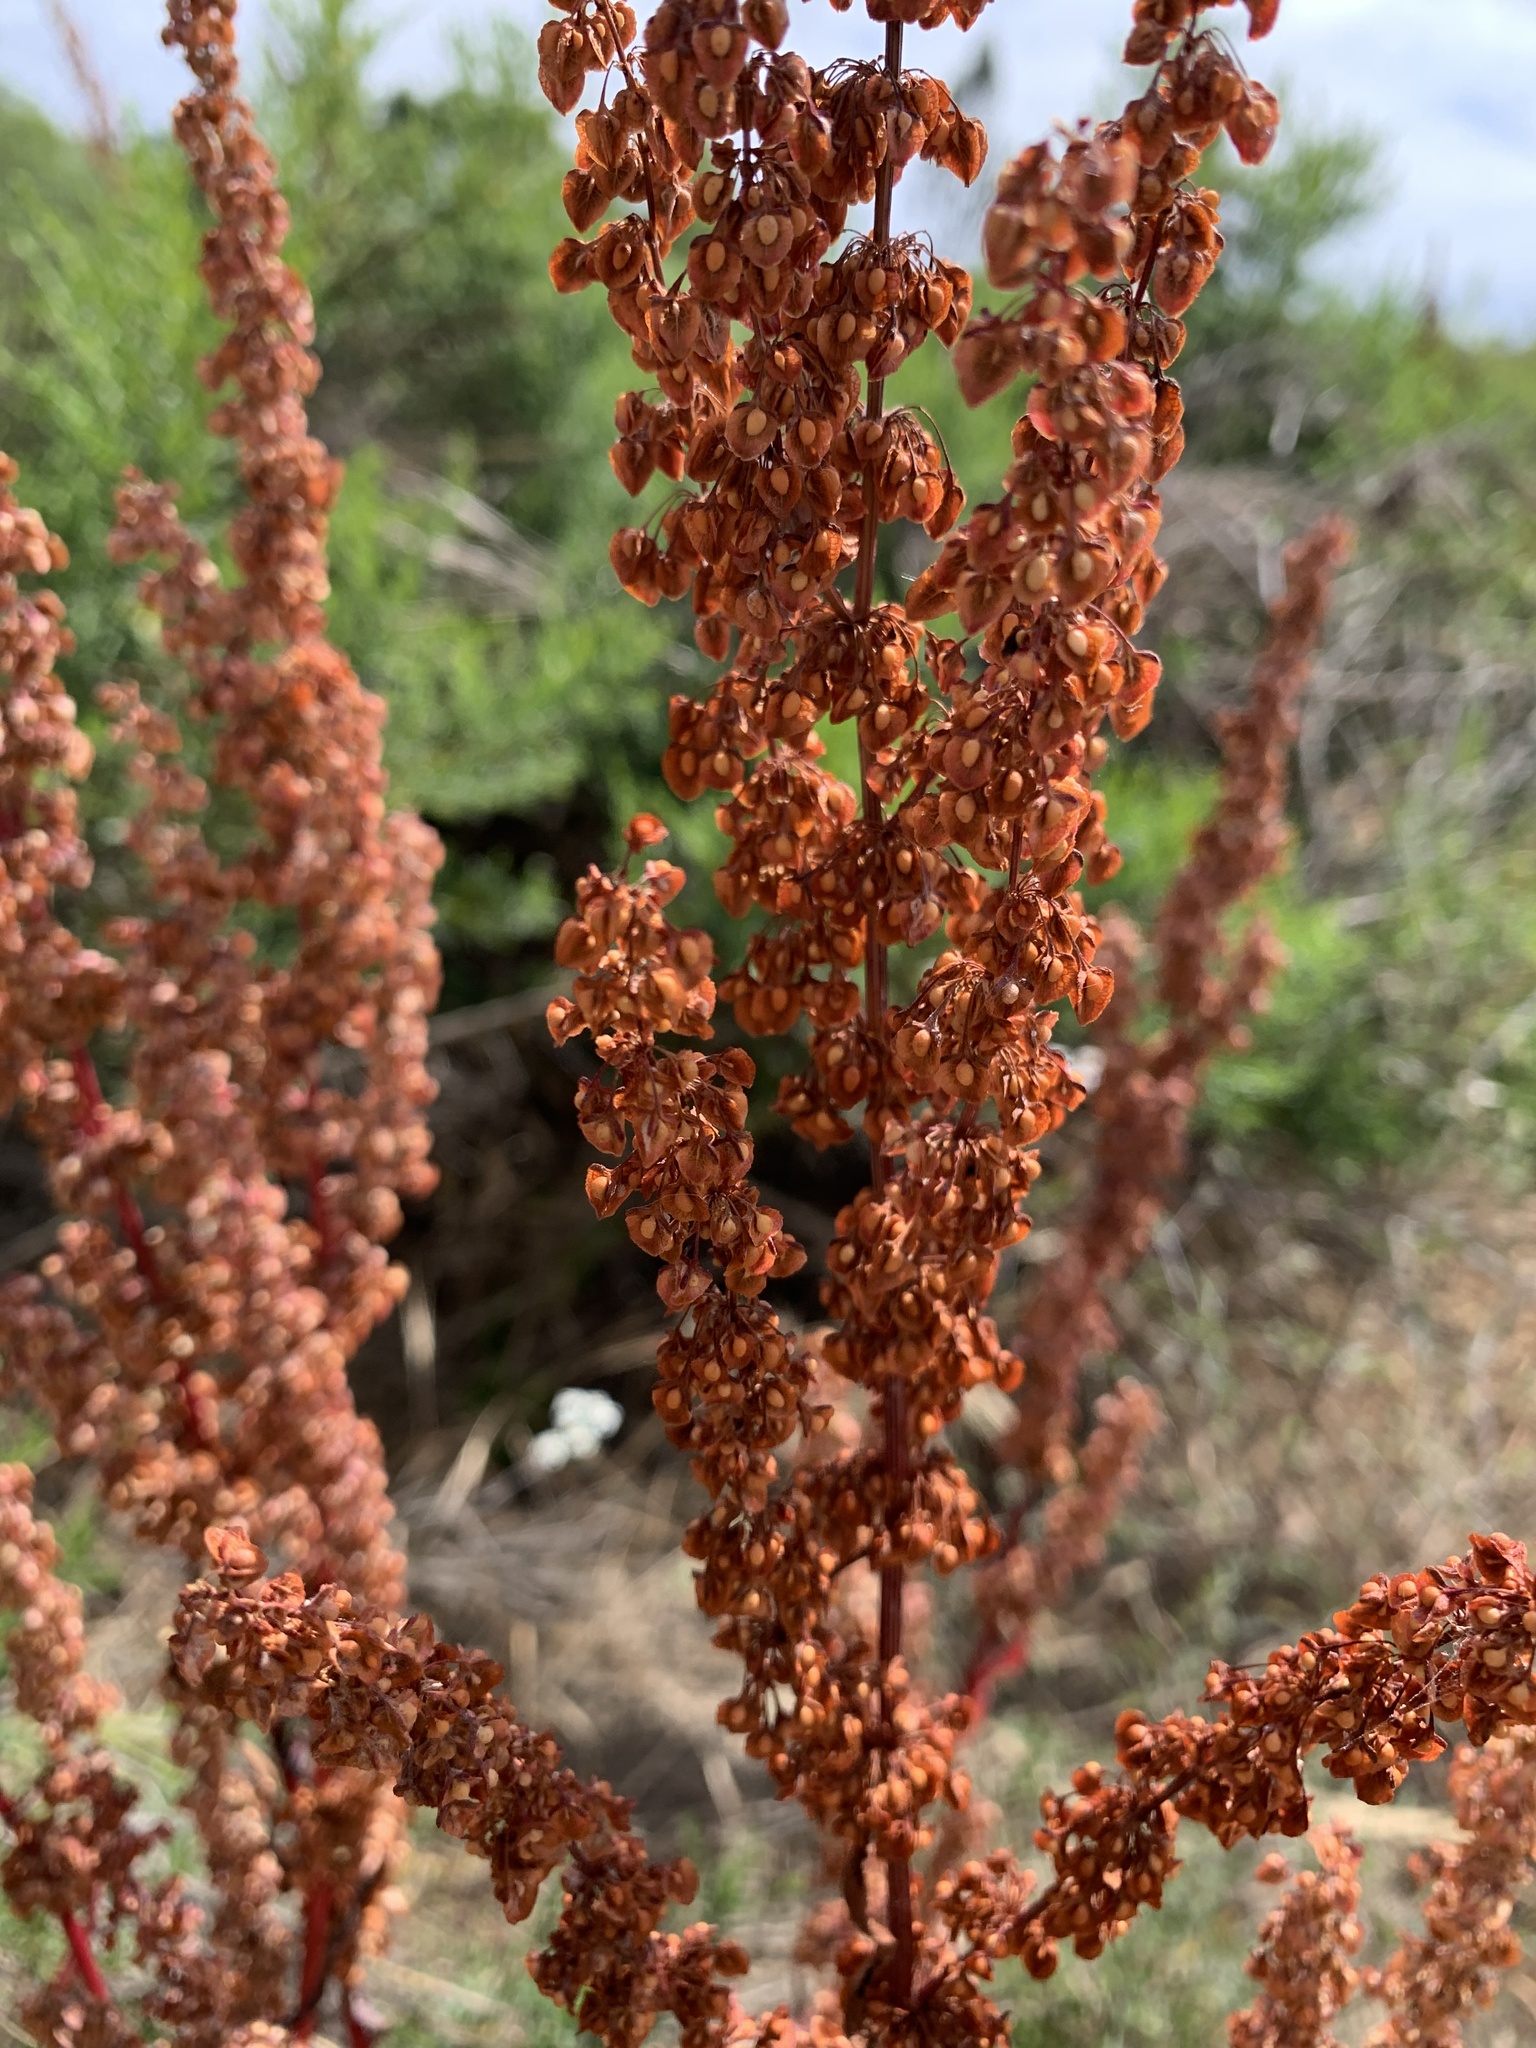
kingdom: Plantae
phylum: Tracheophyta
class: Magnoliopsida
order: Caryophyllales
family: Polygonaceae
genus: Rumex
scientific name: Rumex crispus
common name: Curled dock
